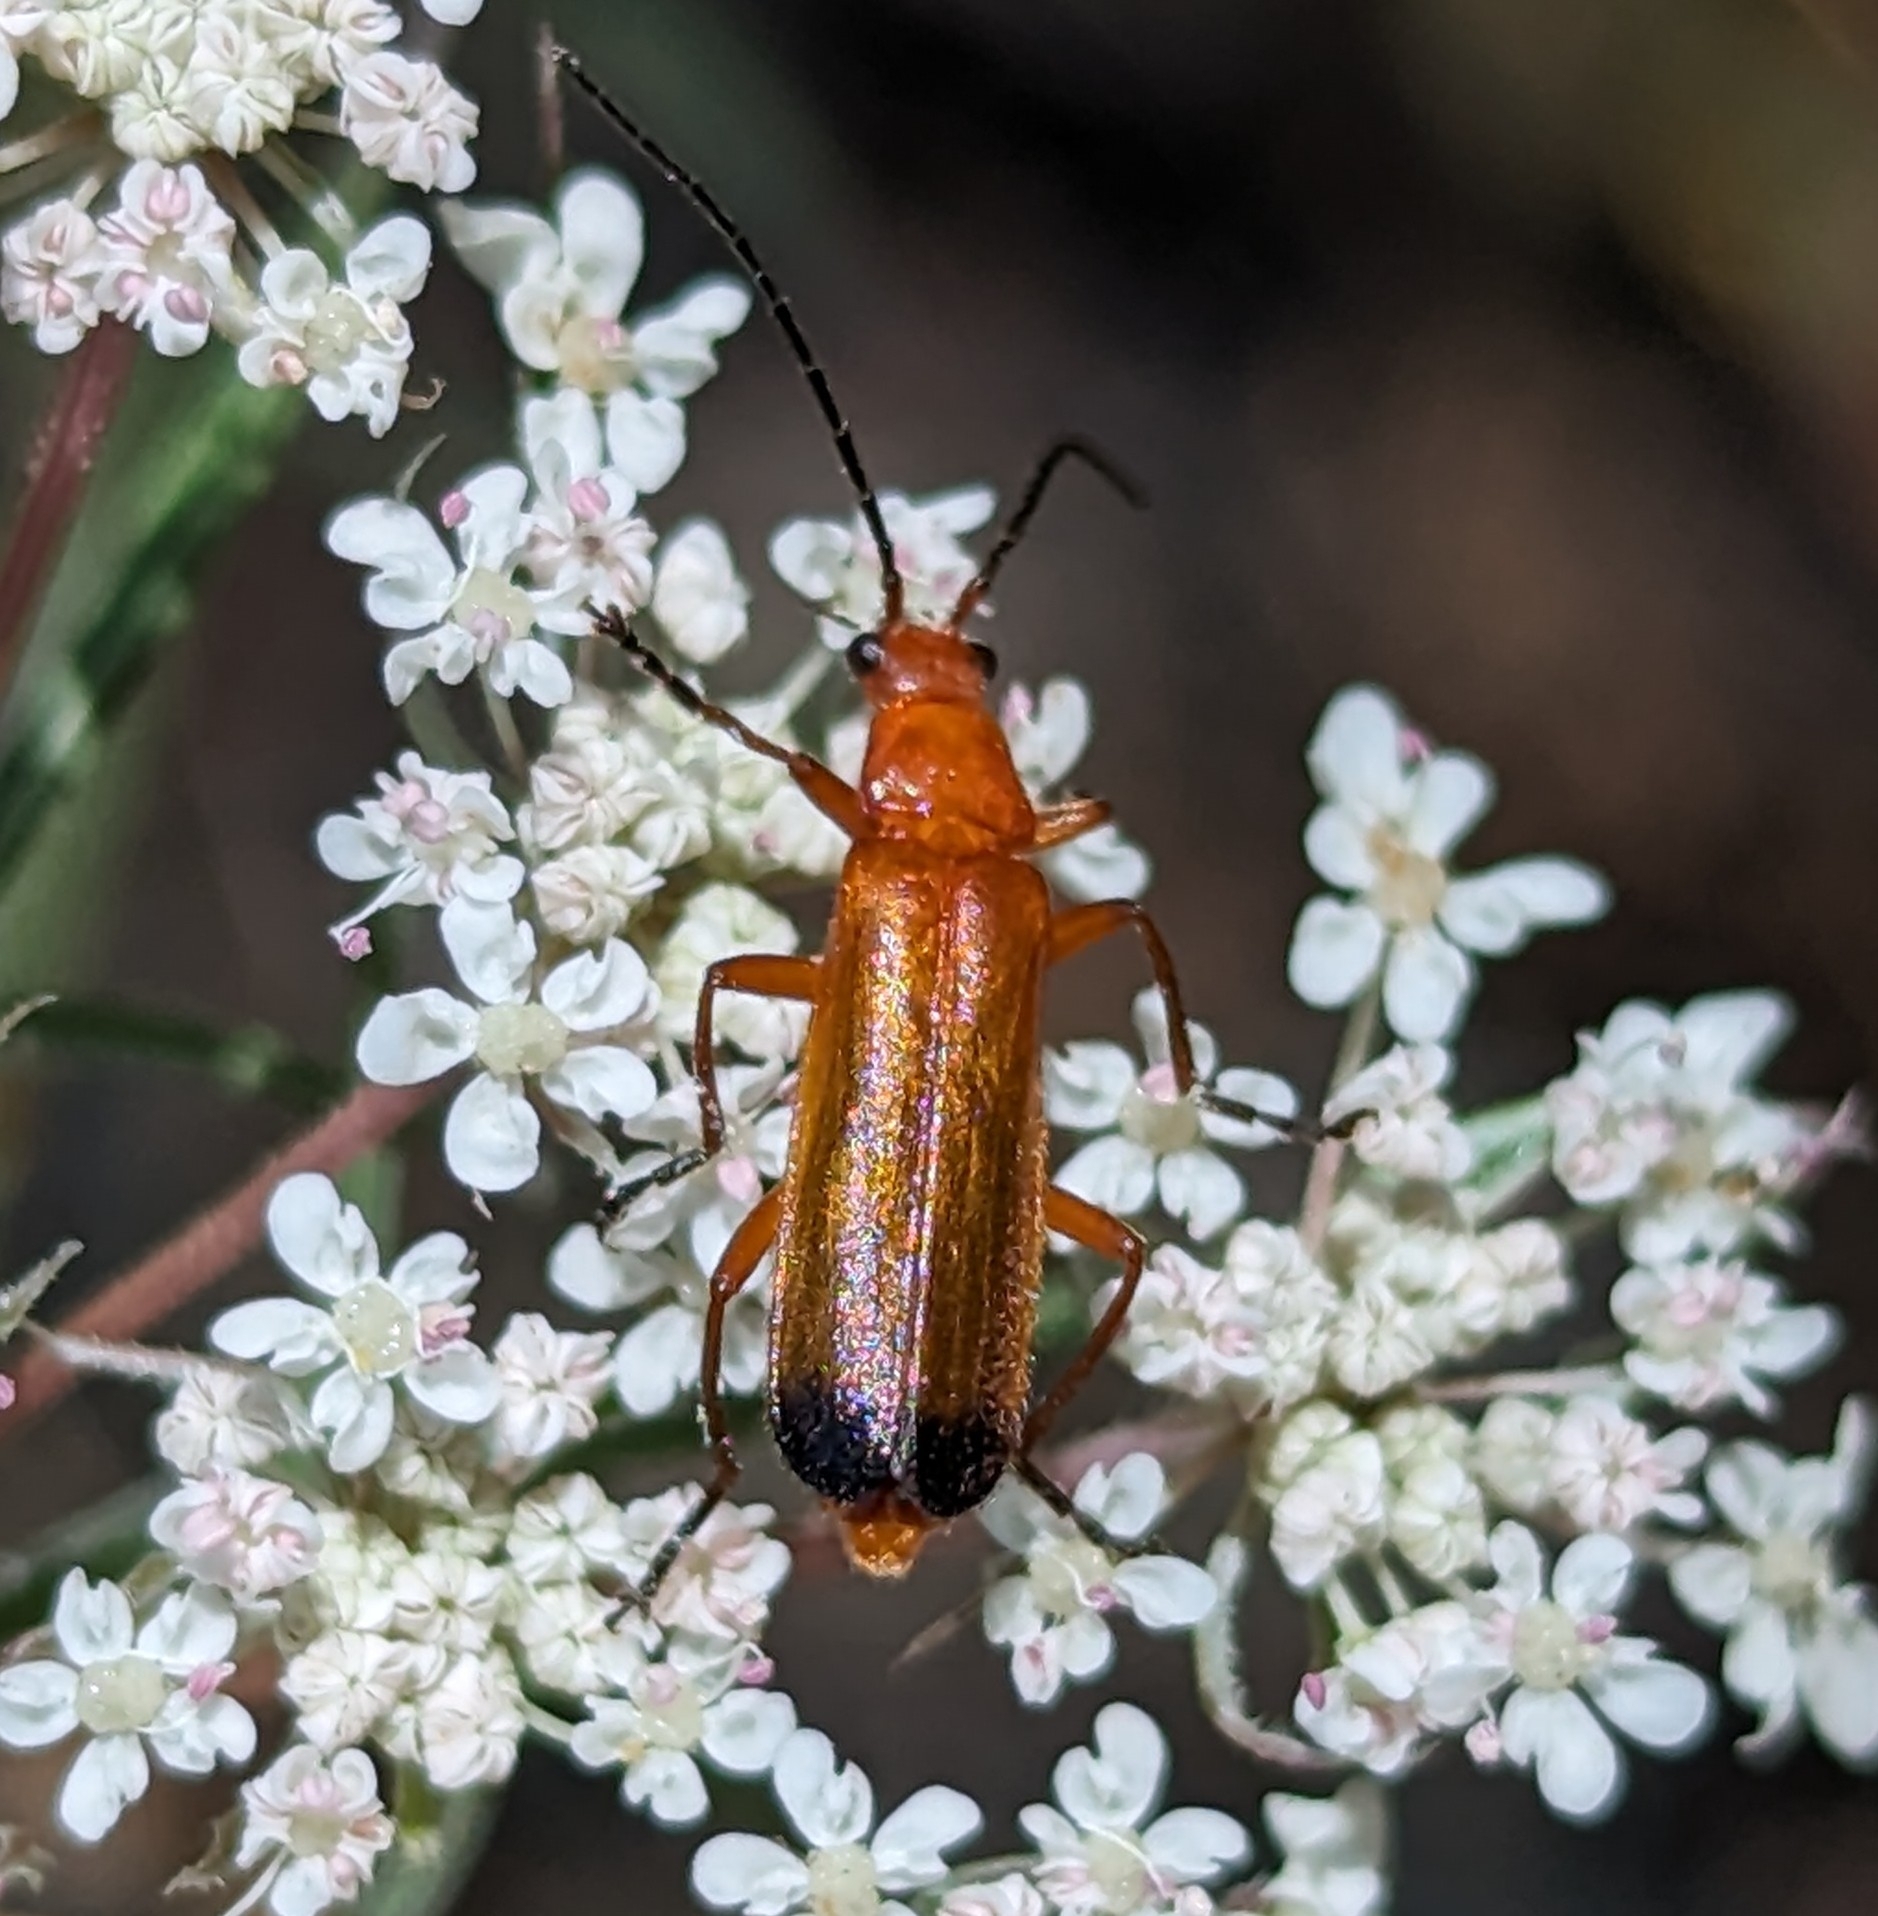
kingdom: Animalia
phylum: Arthropoda
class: Insecta
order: Coleoptera
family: Cantharidae
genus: Rhagonycha
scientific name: Rhagonycha fulva
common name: Common red soldier beetle
